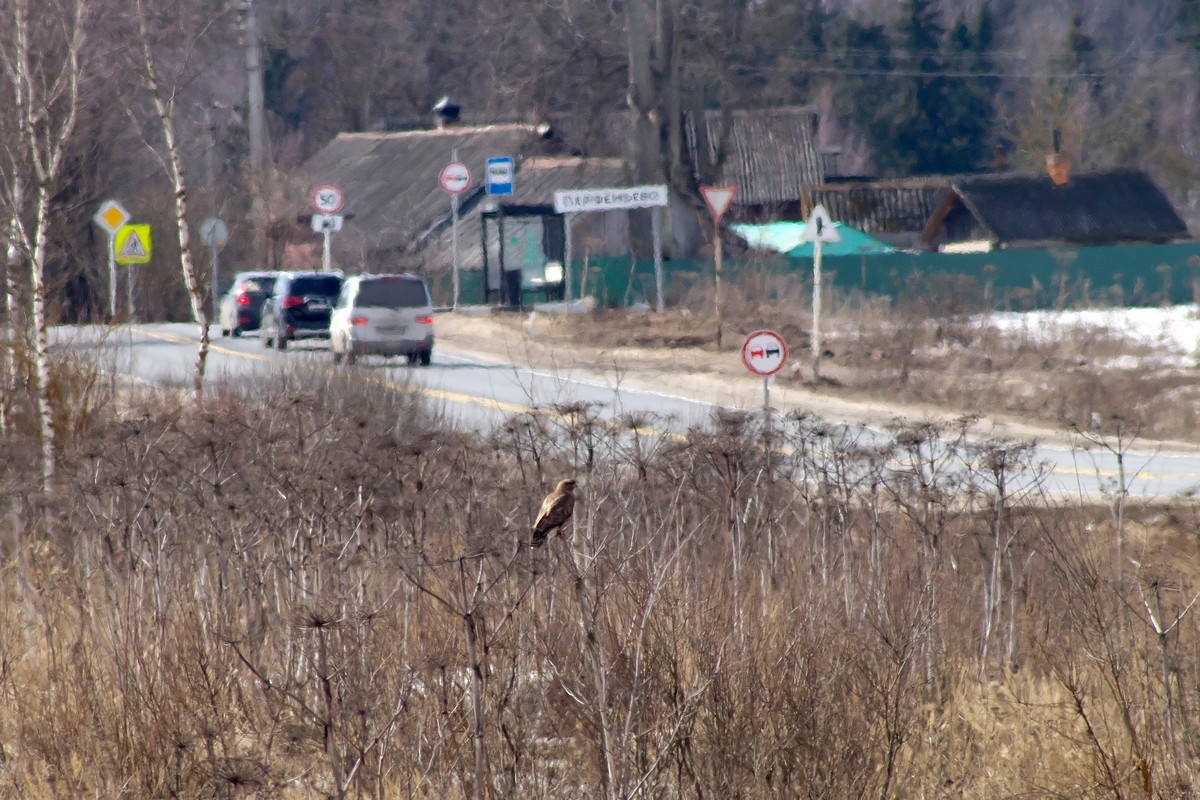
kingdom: Animalia
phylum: Chordata
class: Aves
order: Accipitriformes
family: Accipitridae
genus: Buteo
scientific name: Buteo buteo
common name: Common buzzard
